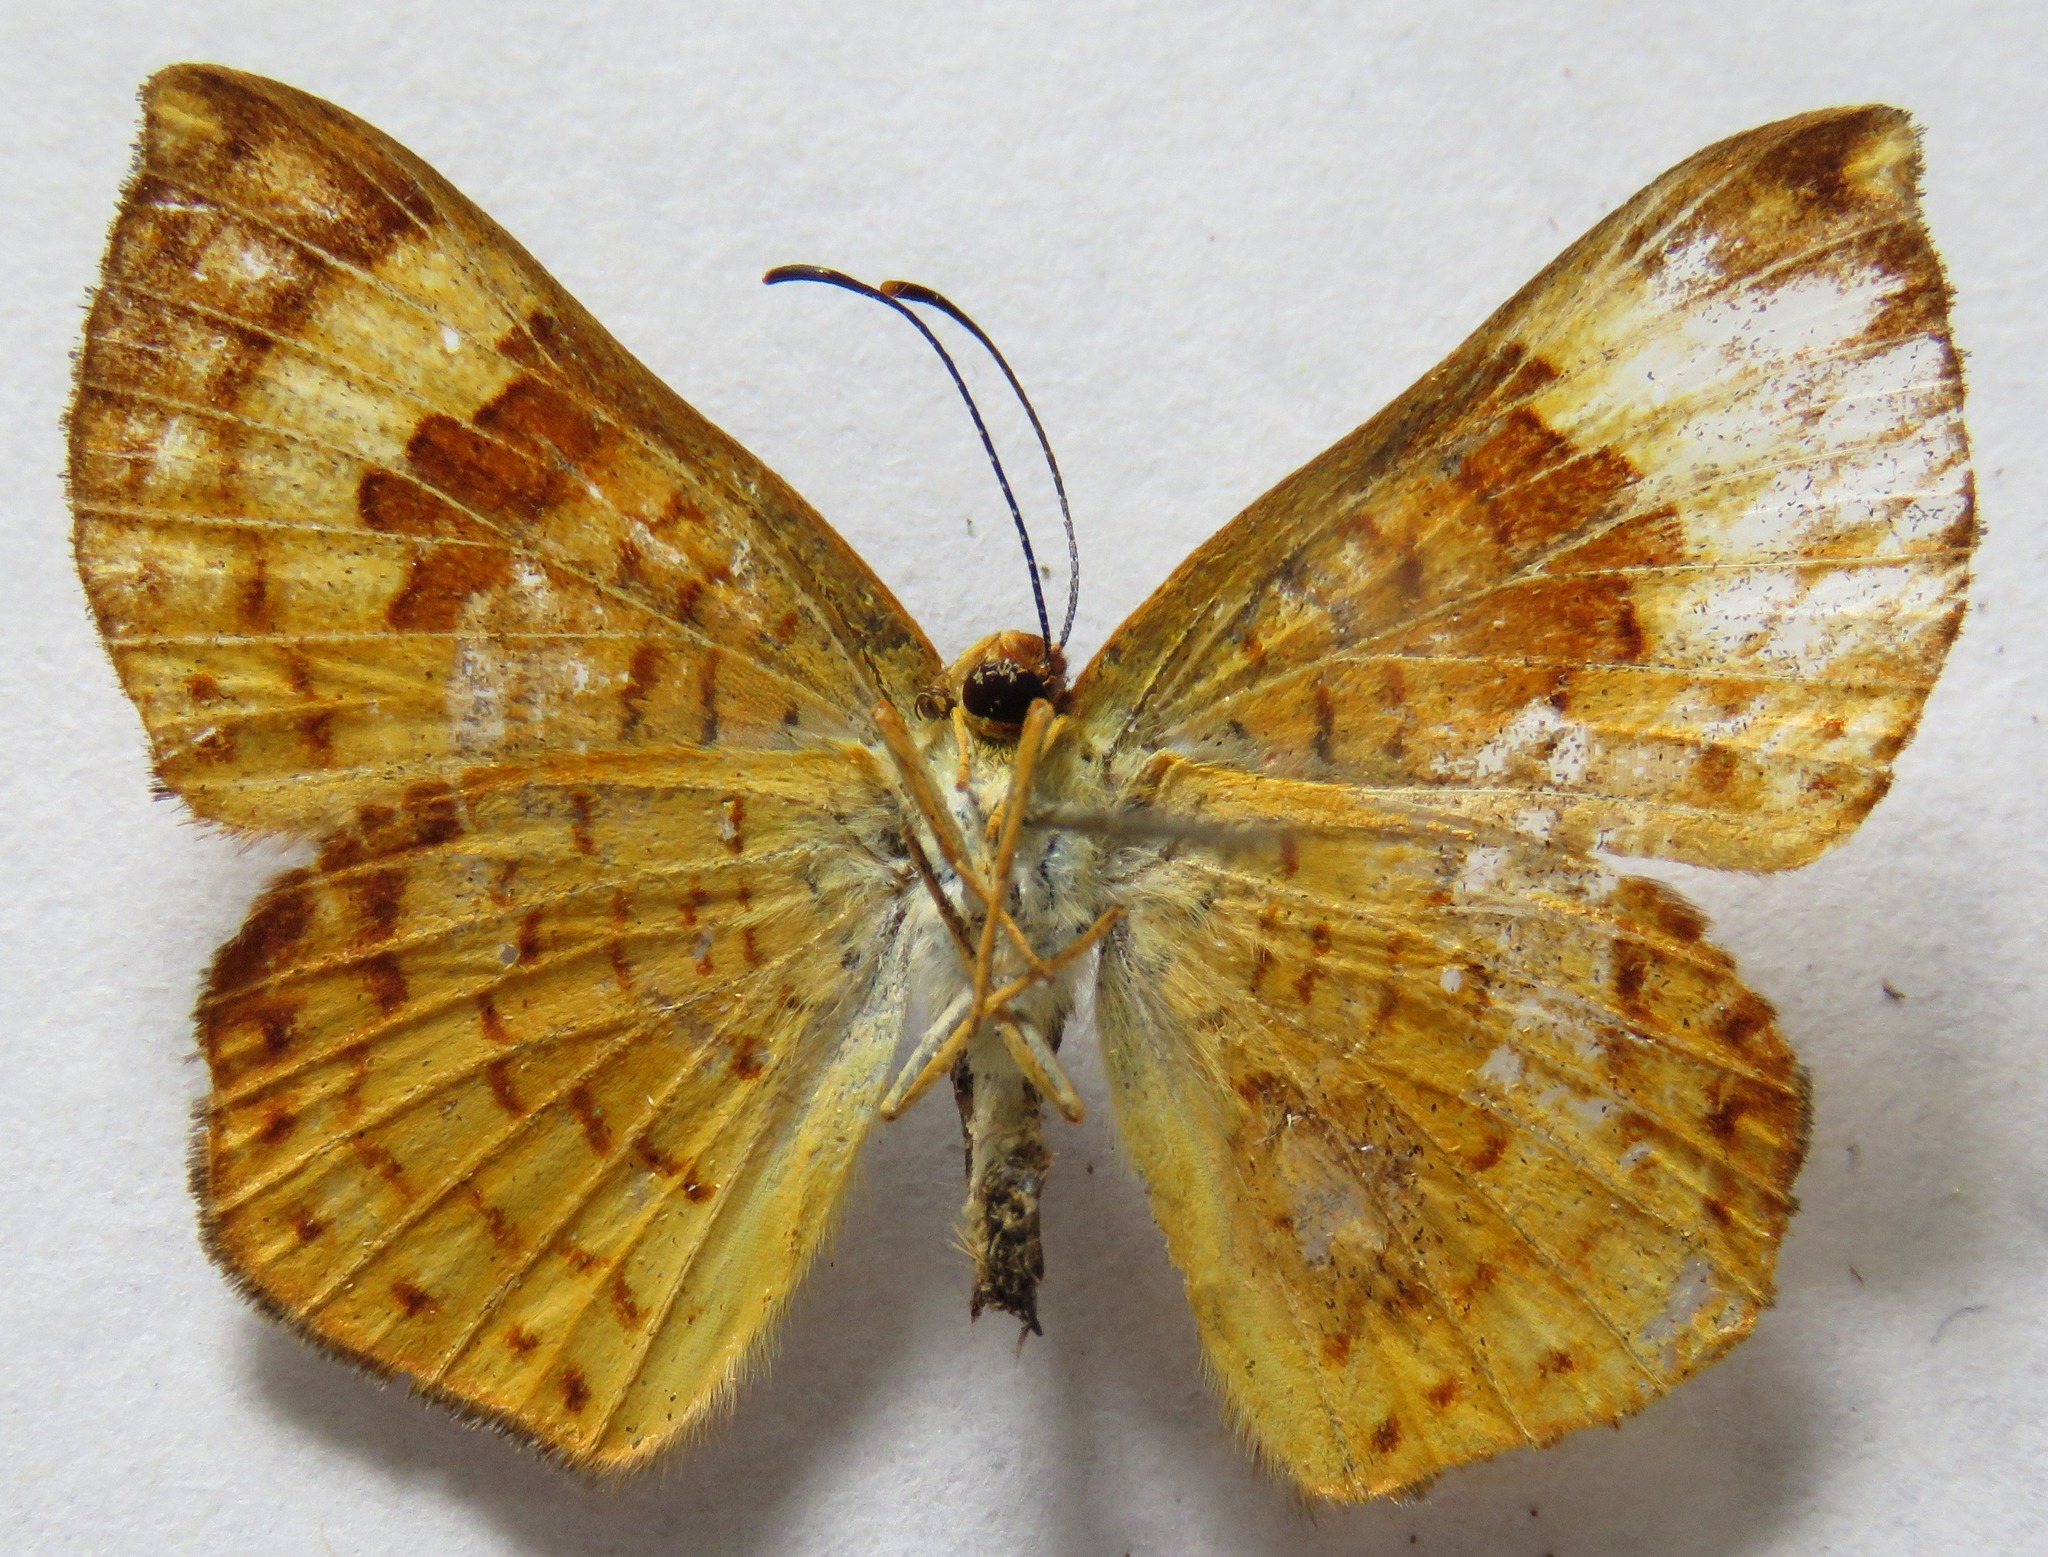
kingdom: Animalia
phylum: Arthropoda
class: Insecta
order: Lepidoptera
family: Lycaenidae
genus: Emesis
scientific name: Emesis tenedia
